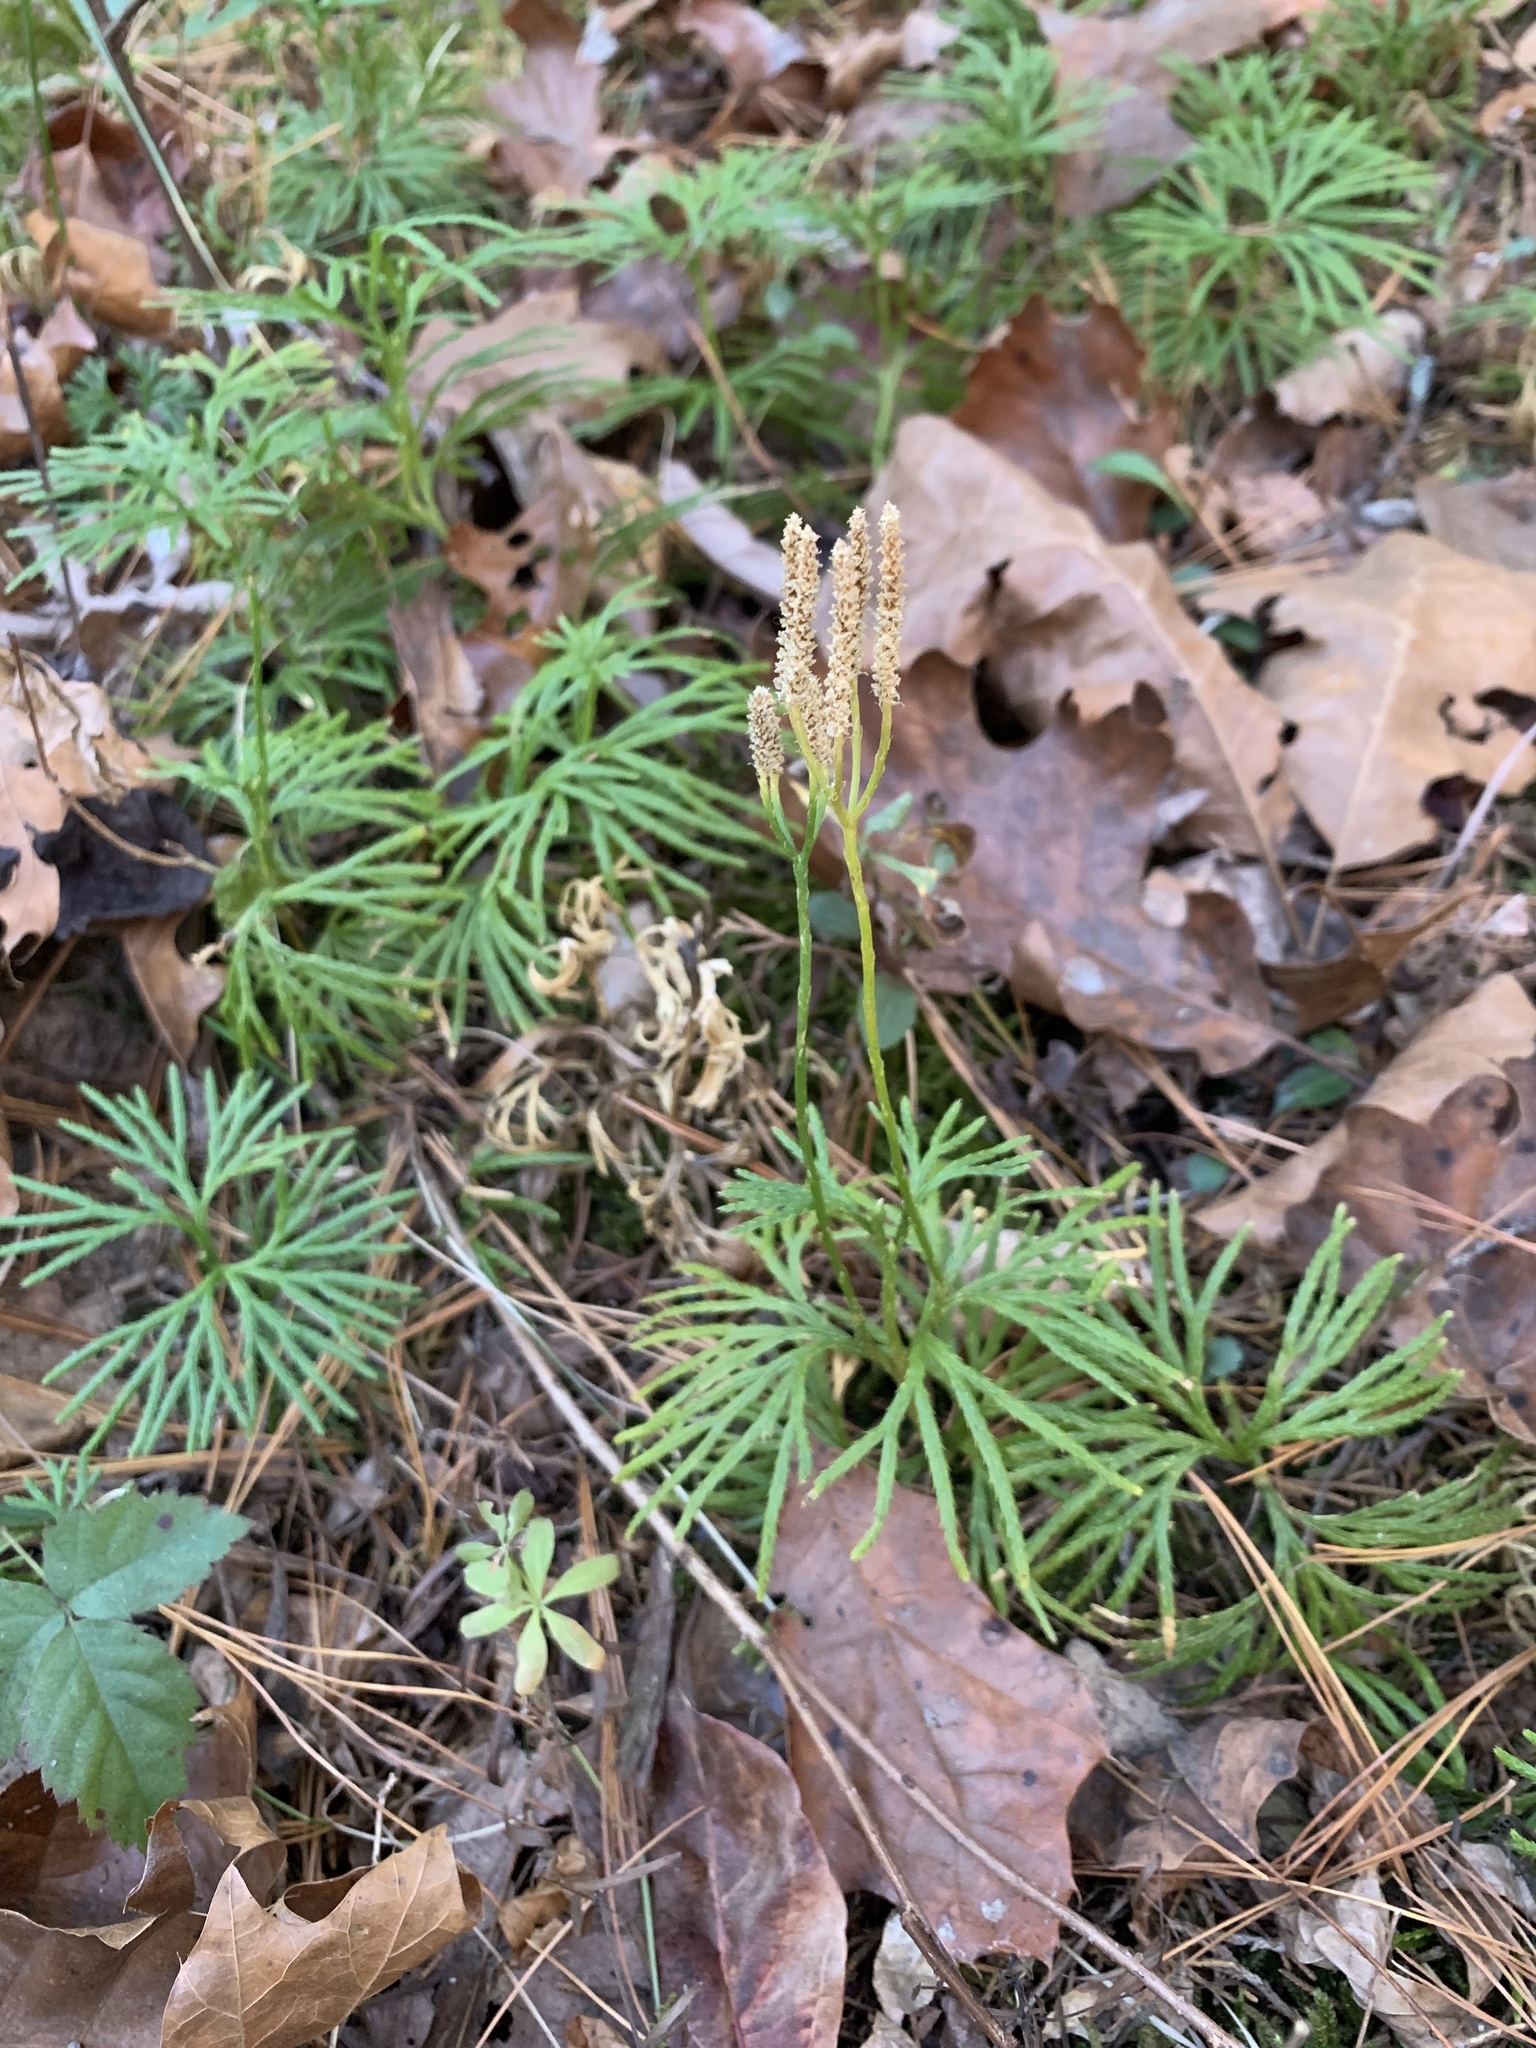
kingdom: Plantae
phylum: Tracheophyta
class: Lycopodiopsida
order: Lycopodiales
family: Lycopodiaceae
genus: Diphasiastrum
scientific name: Diphasiastrum digitatum
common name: Southern running-pine
